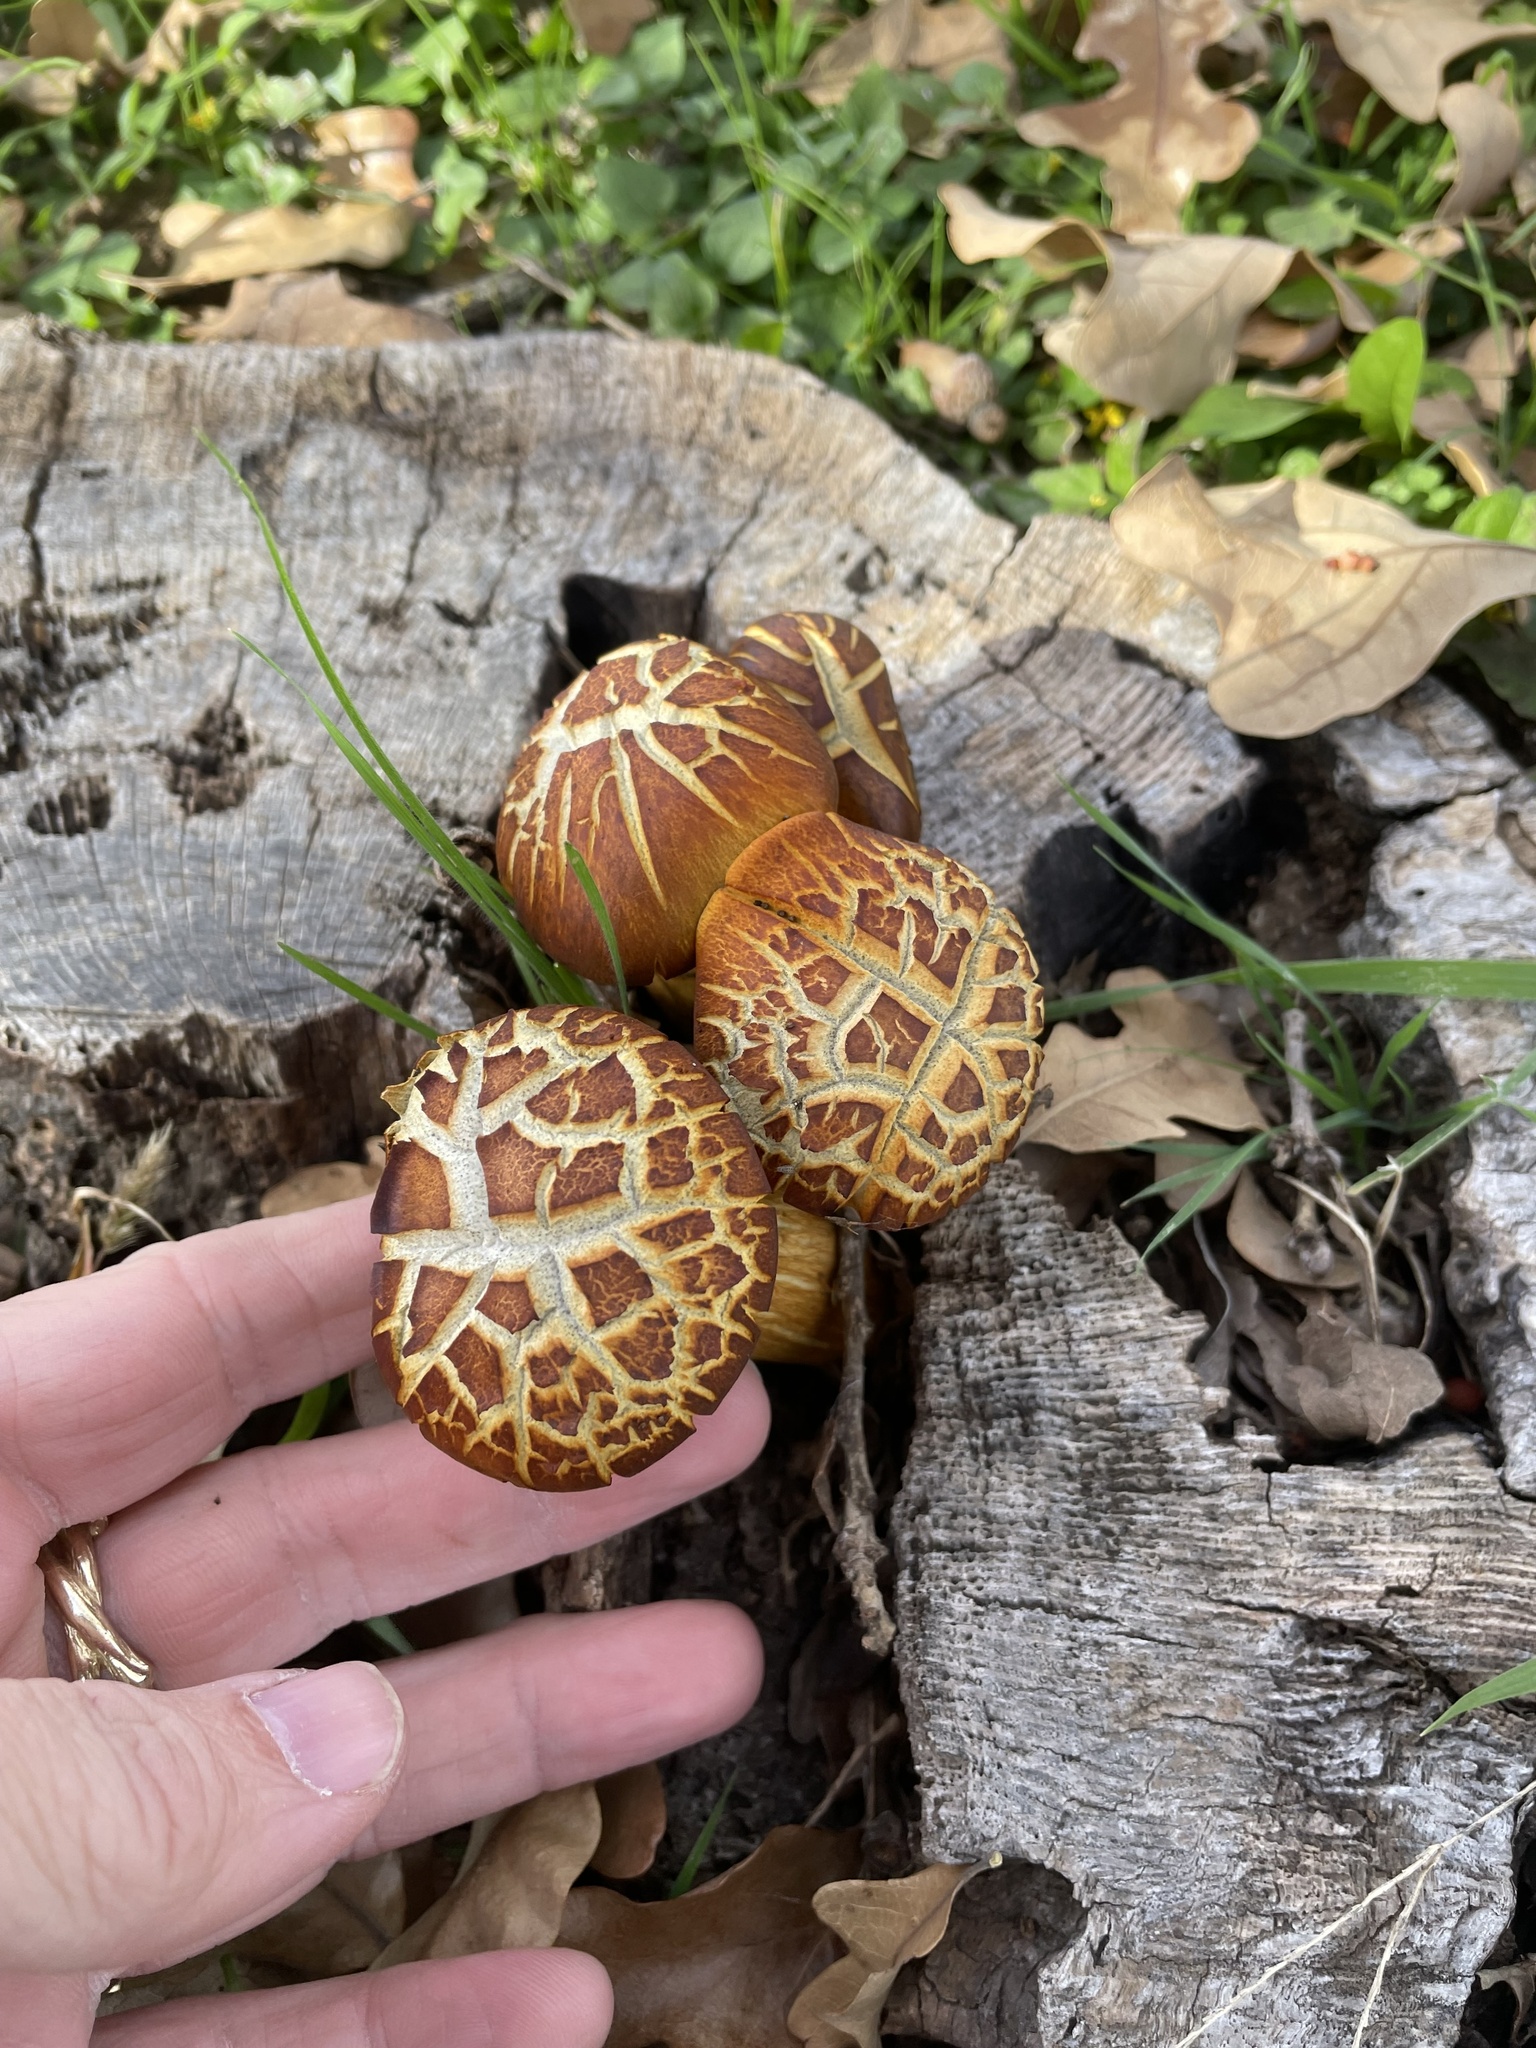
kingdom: Fungi
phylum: Basidiomycota
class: Agaricomycetes
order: Agaricales
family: Omphalotaceae
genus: Omphalotus
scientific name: Omphalotus subilludens
